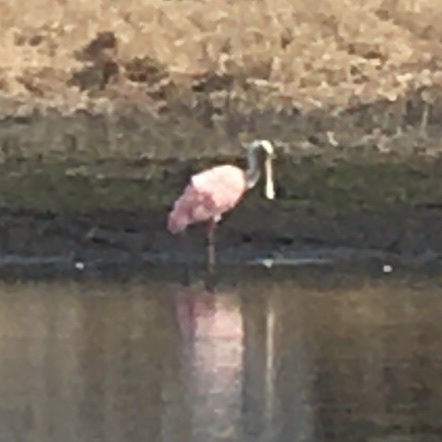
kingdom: Animalia
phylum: Chordata
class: Aves
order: Pelecaniformes
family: Threskiornithidae
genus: Platalea
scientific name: Platalea ajaja
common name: Roseate spoonbill
